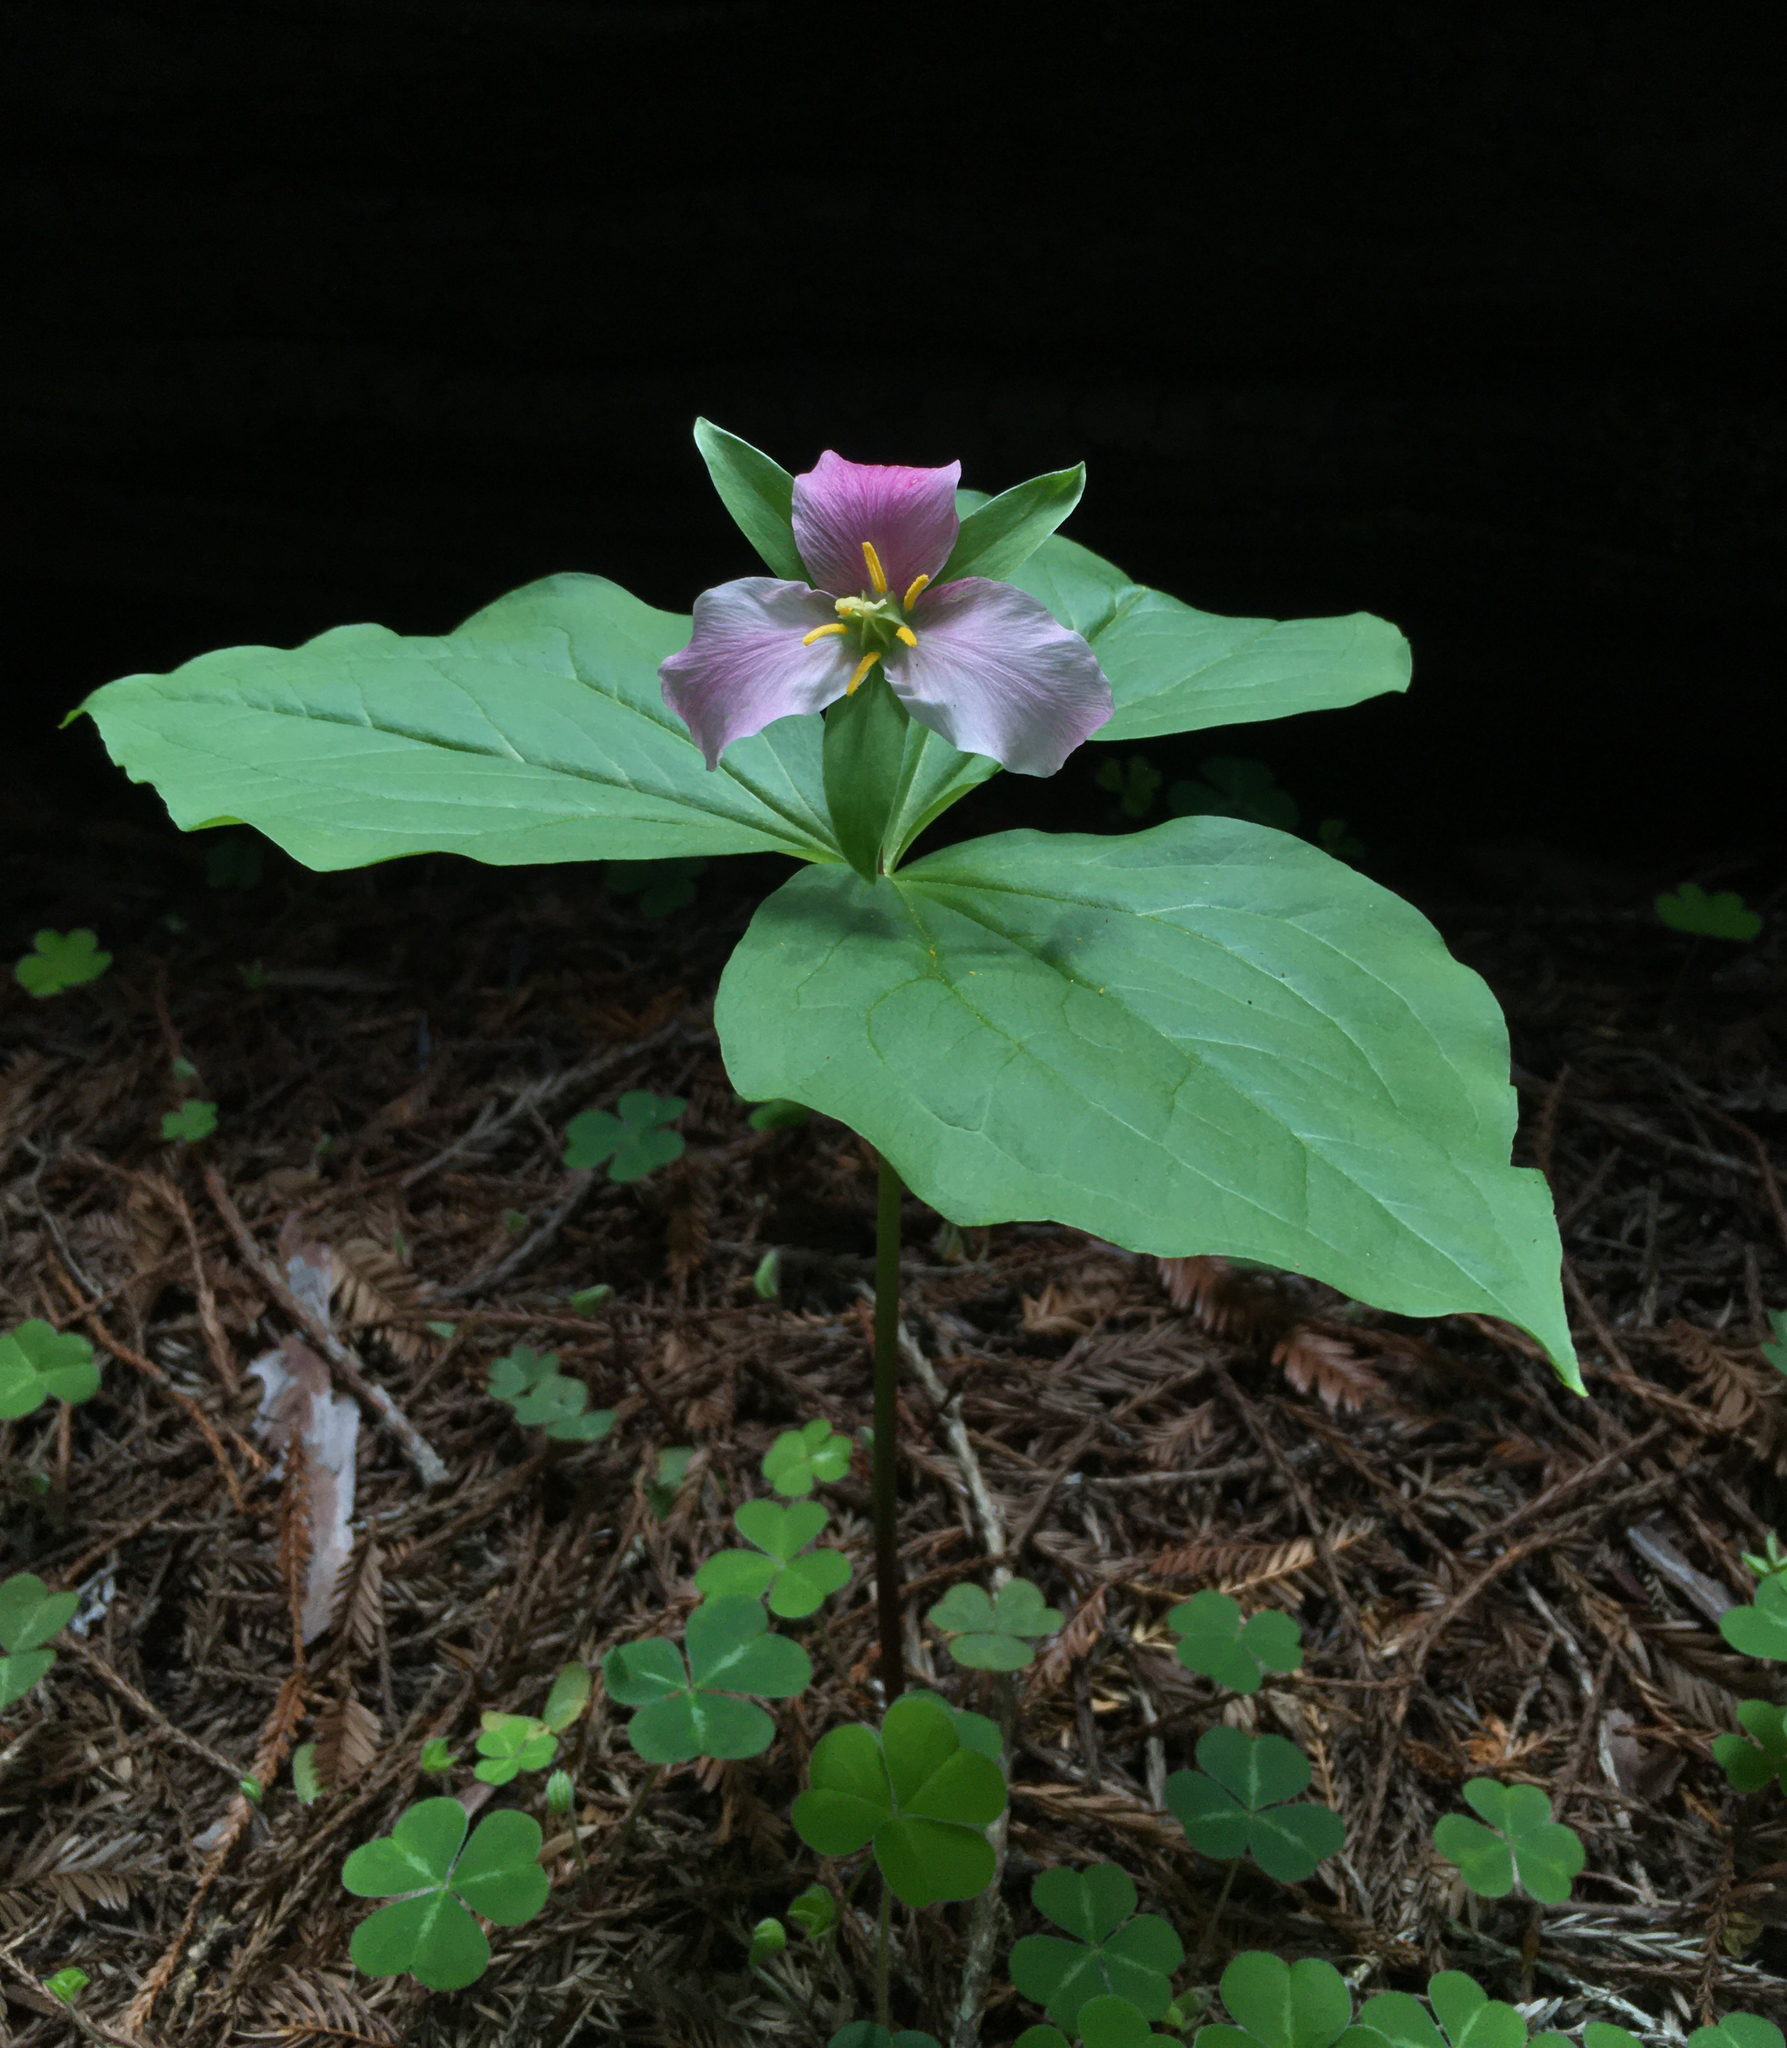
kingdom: Plantae
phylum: Tracheophyta
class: Liliopsida
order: Liliales
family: Melanthiaceae
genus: Trillium
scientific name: Trillium ovatum
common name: Pacific trillium
